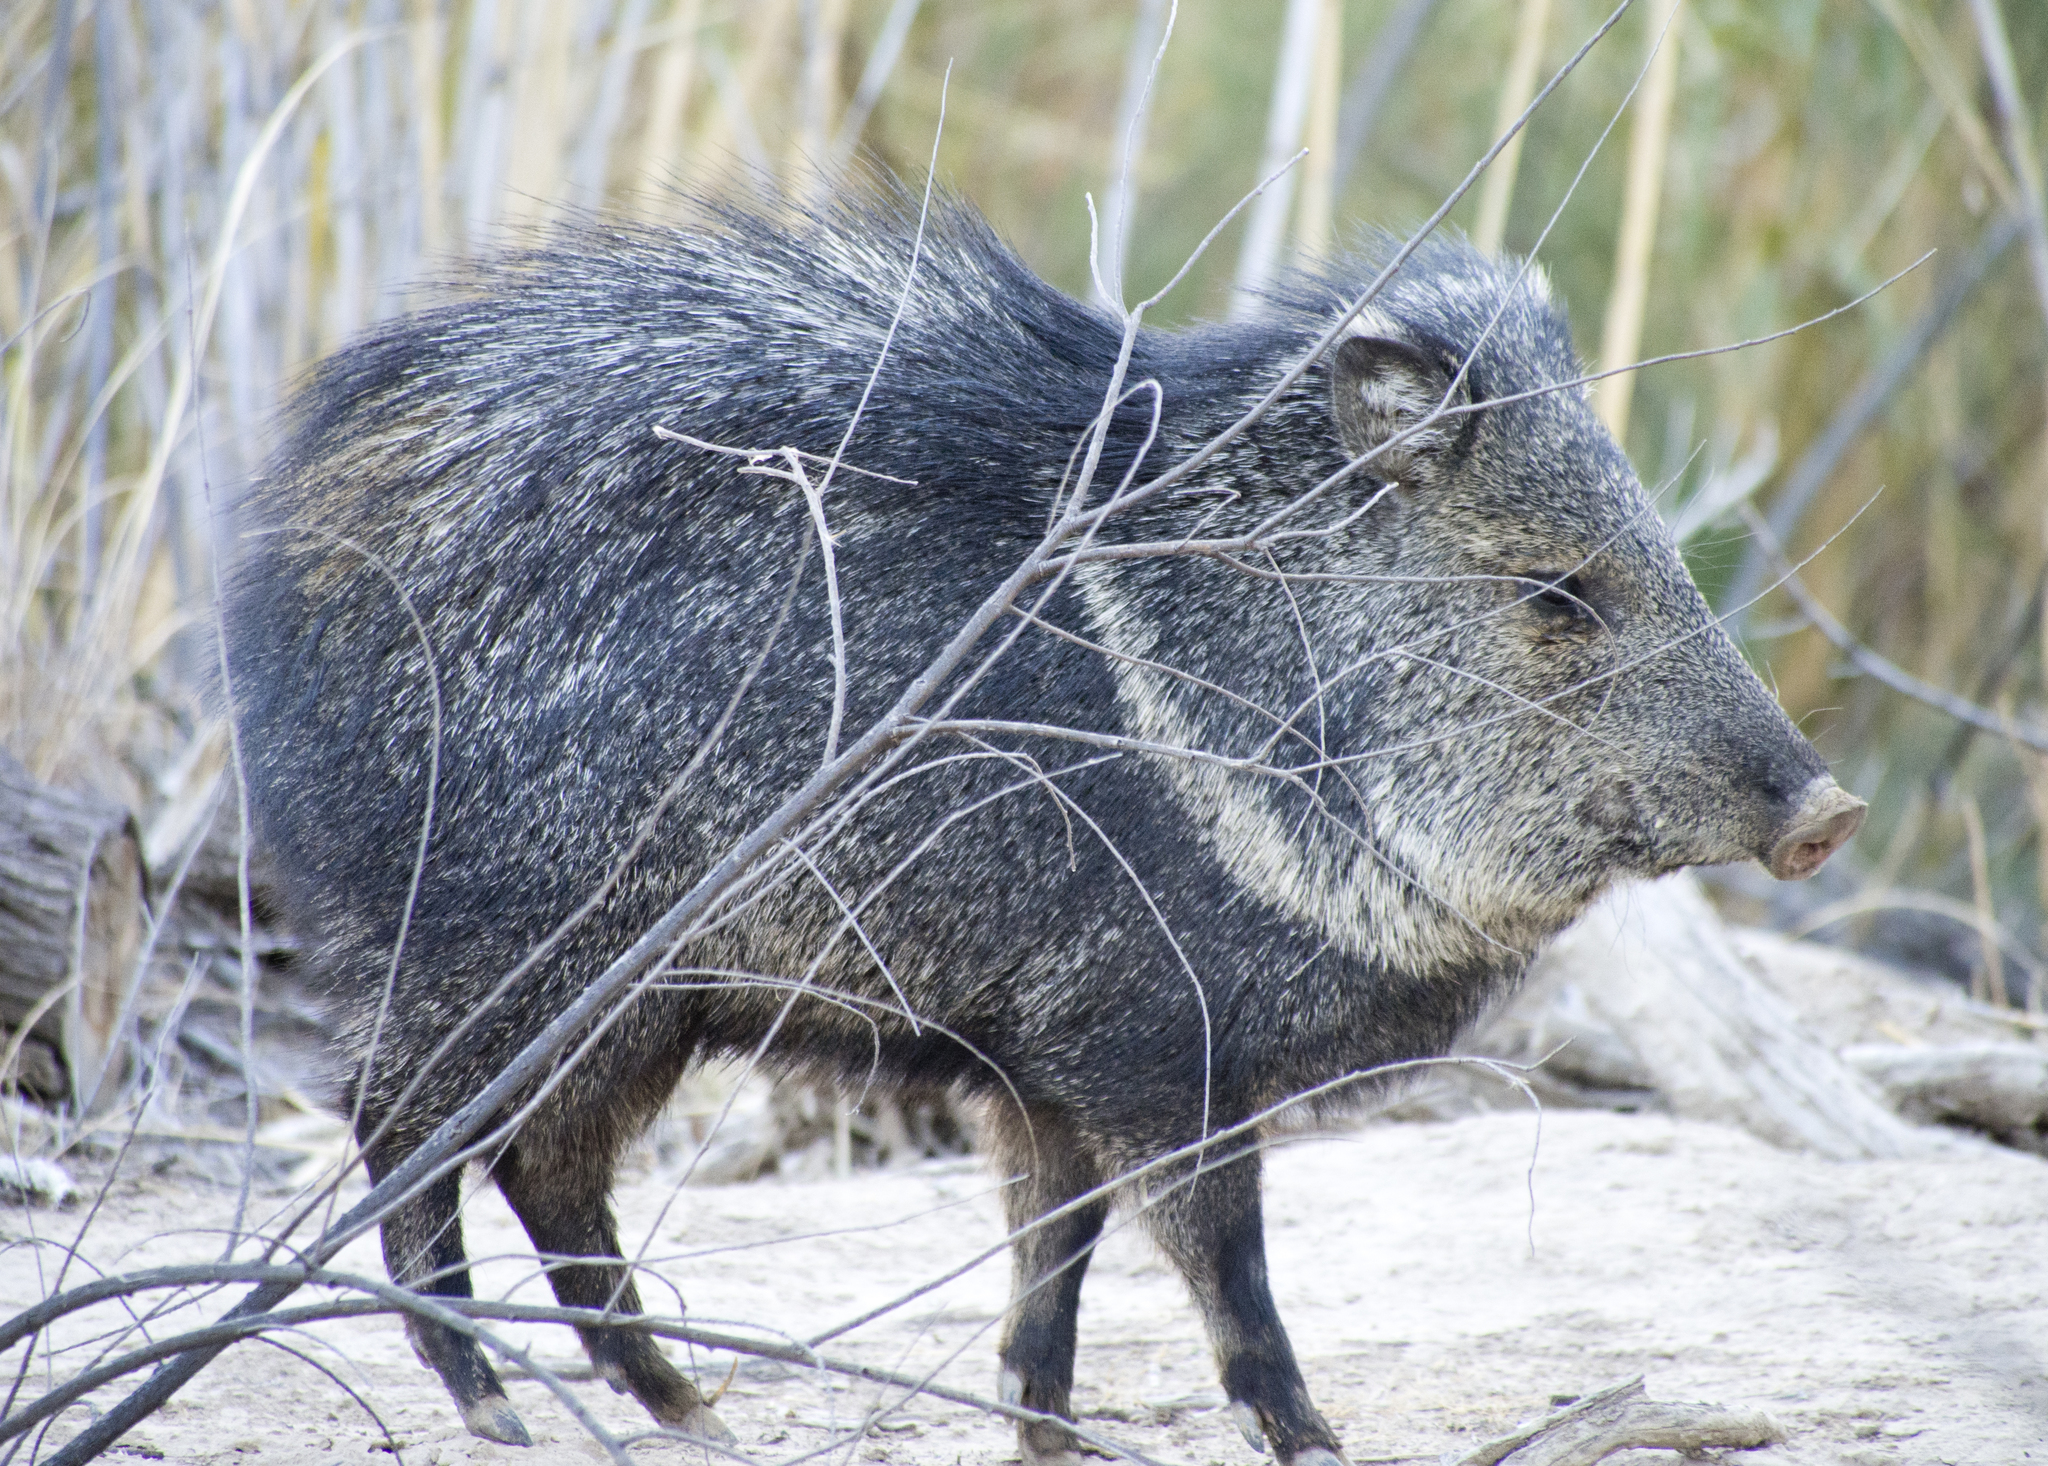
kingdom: Animalia
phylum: Chordata
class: Mammalia
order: Artiodactyla
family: Tayassuidae
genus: Pecari
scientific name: Pecari tajacu
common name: Collared peccary
